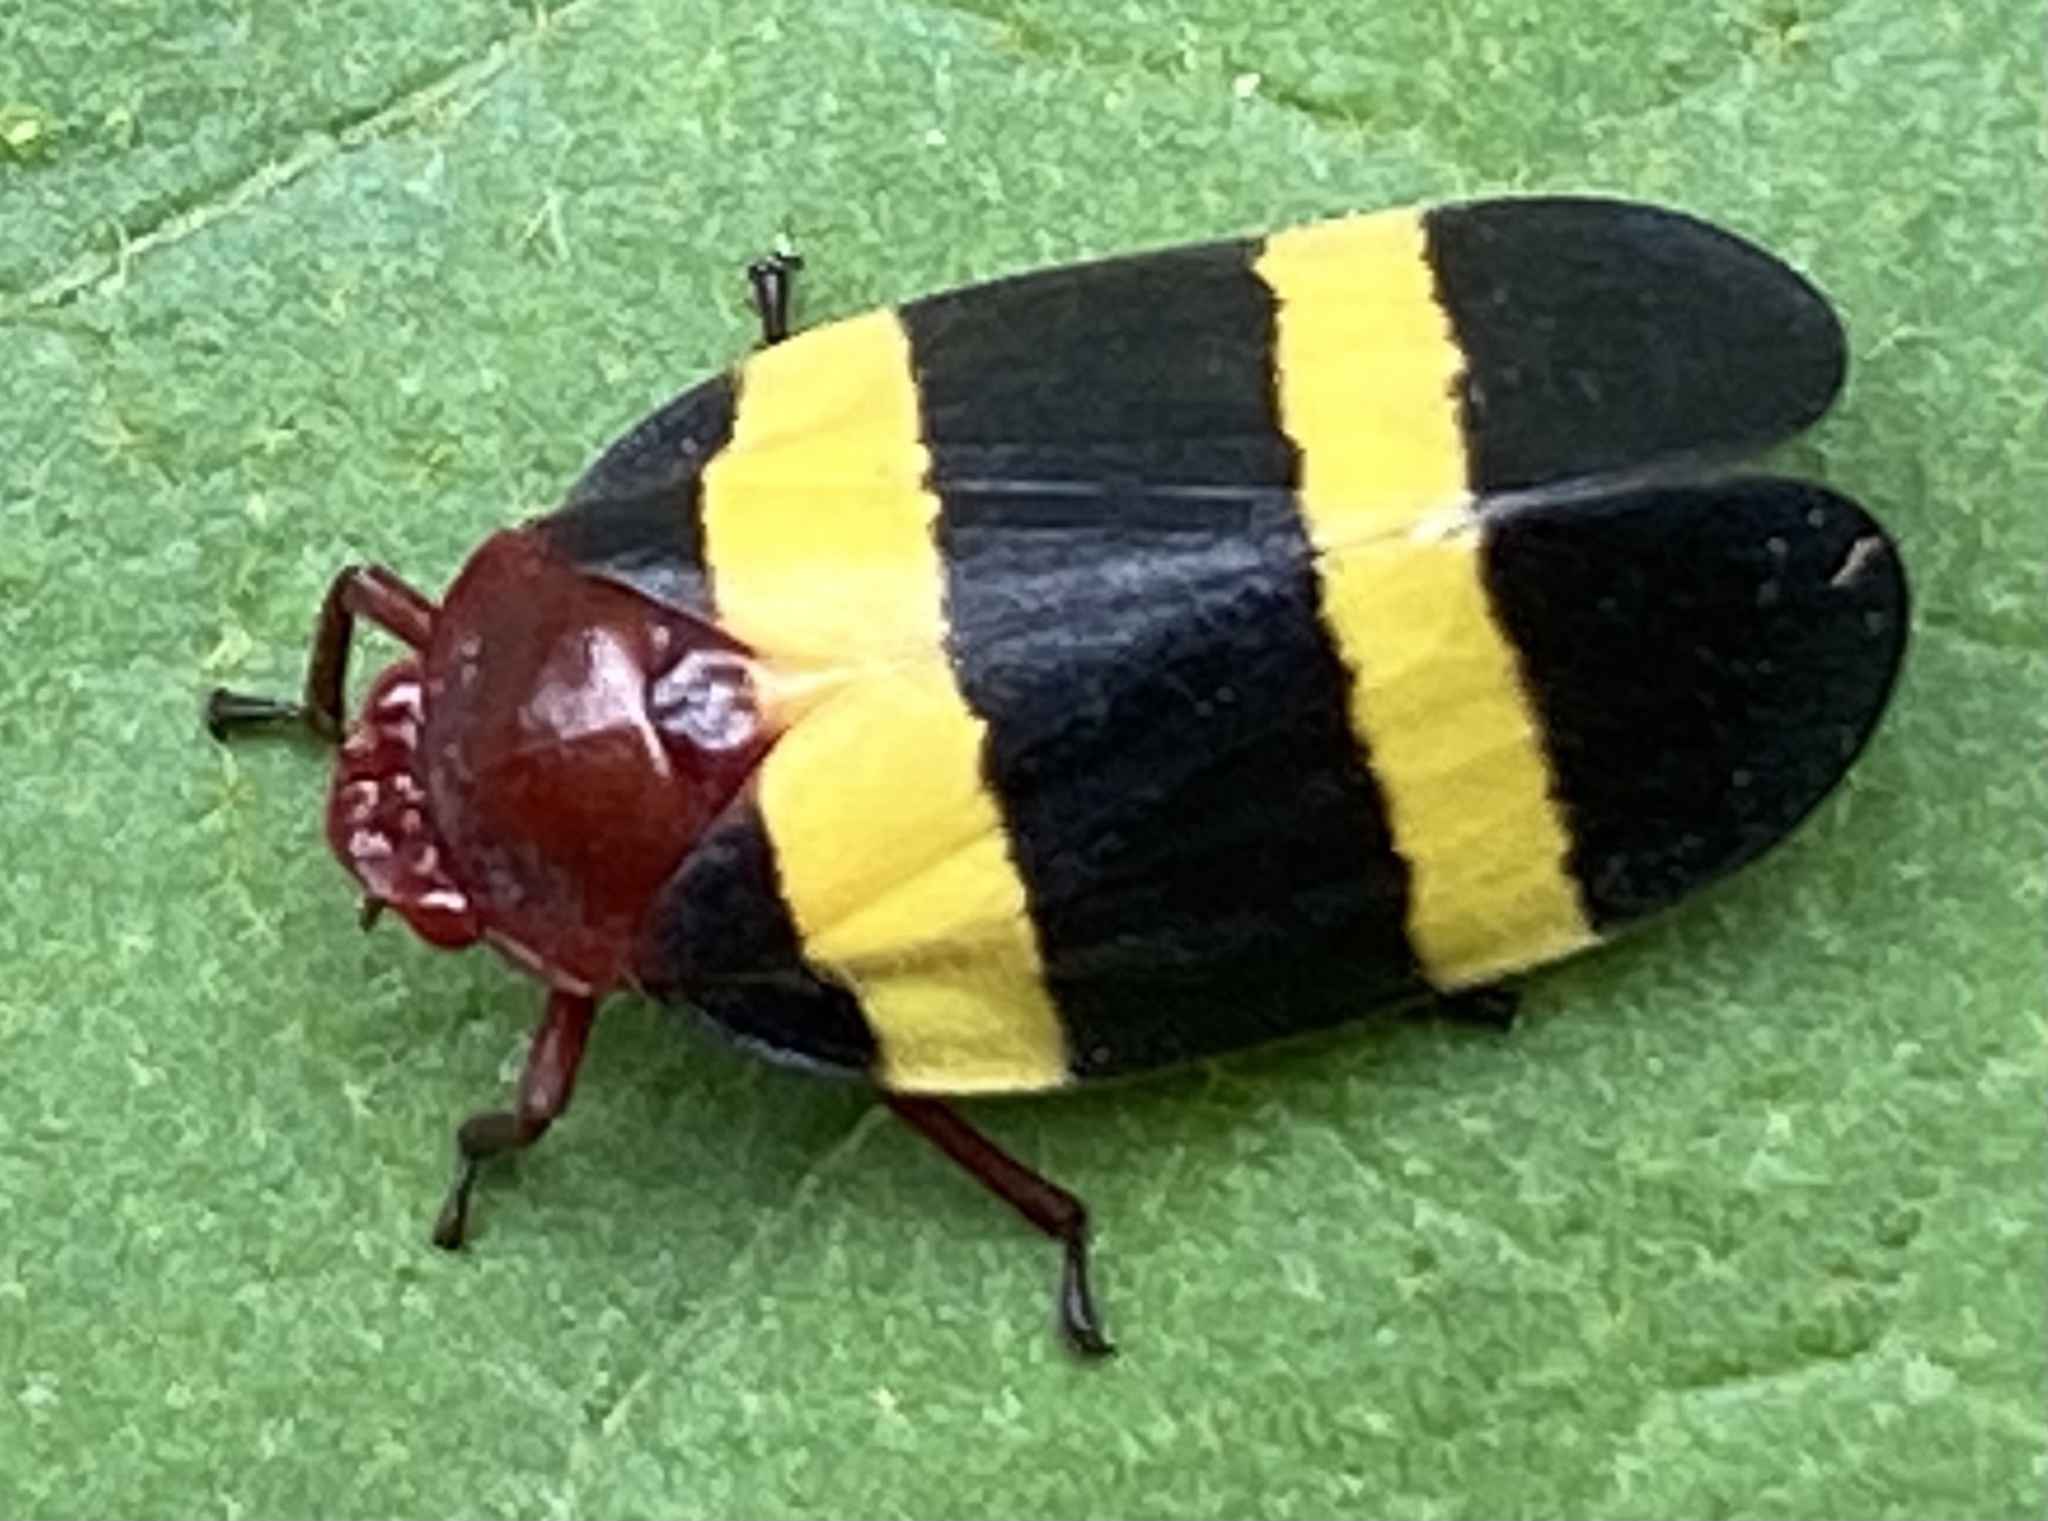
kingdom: Animalia
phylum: Arthropoda
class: Insecta
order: Hemiptera
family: Cercopidae
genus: Sphenorhina
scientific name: Sphenorhina rubra
